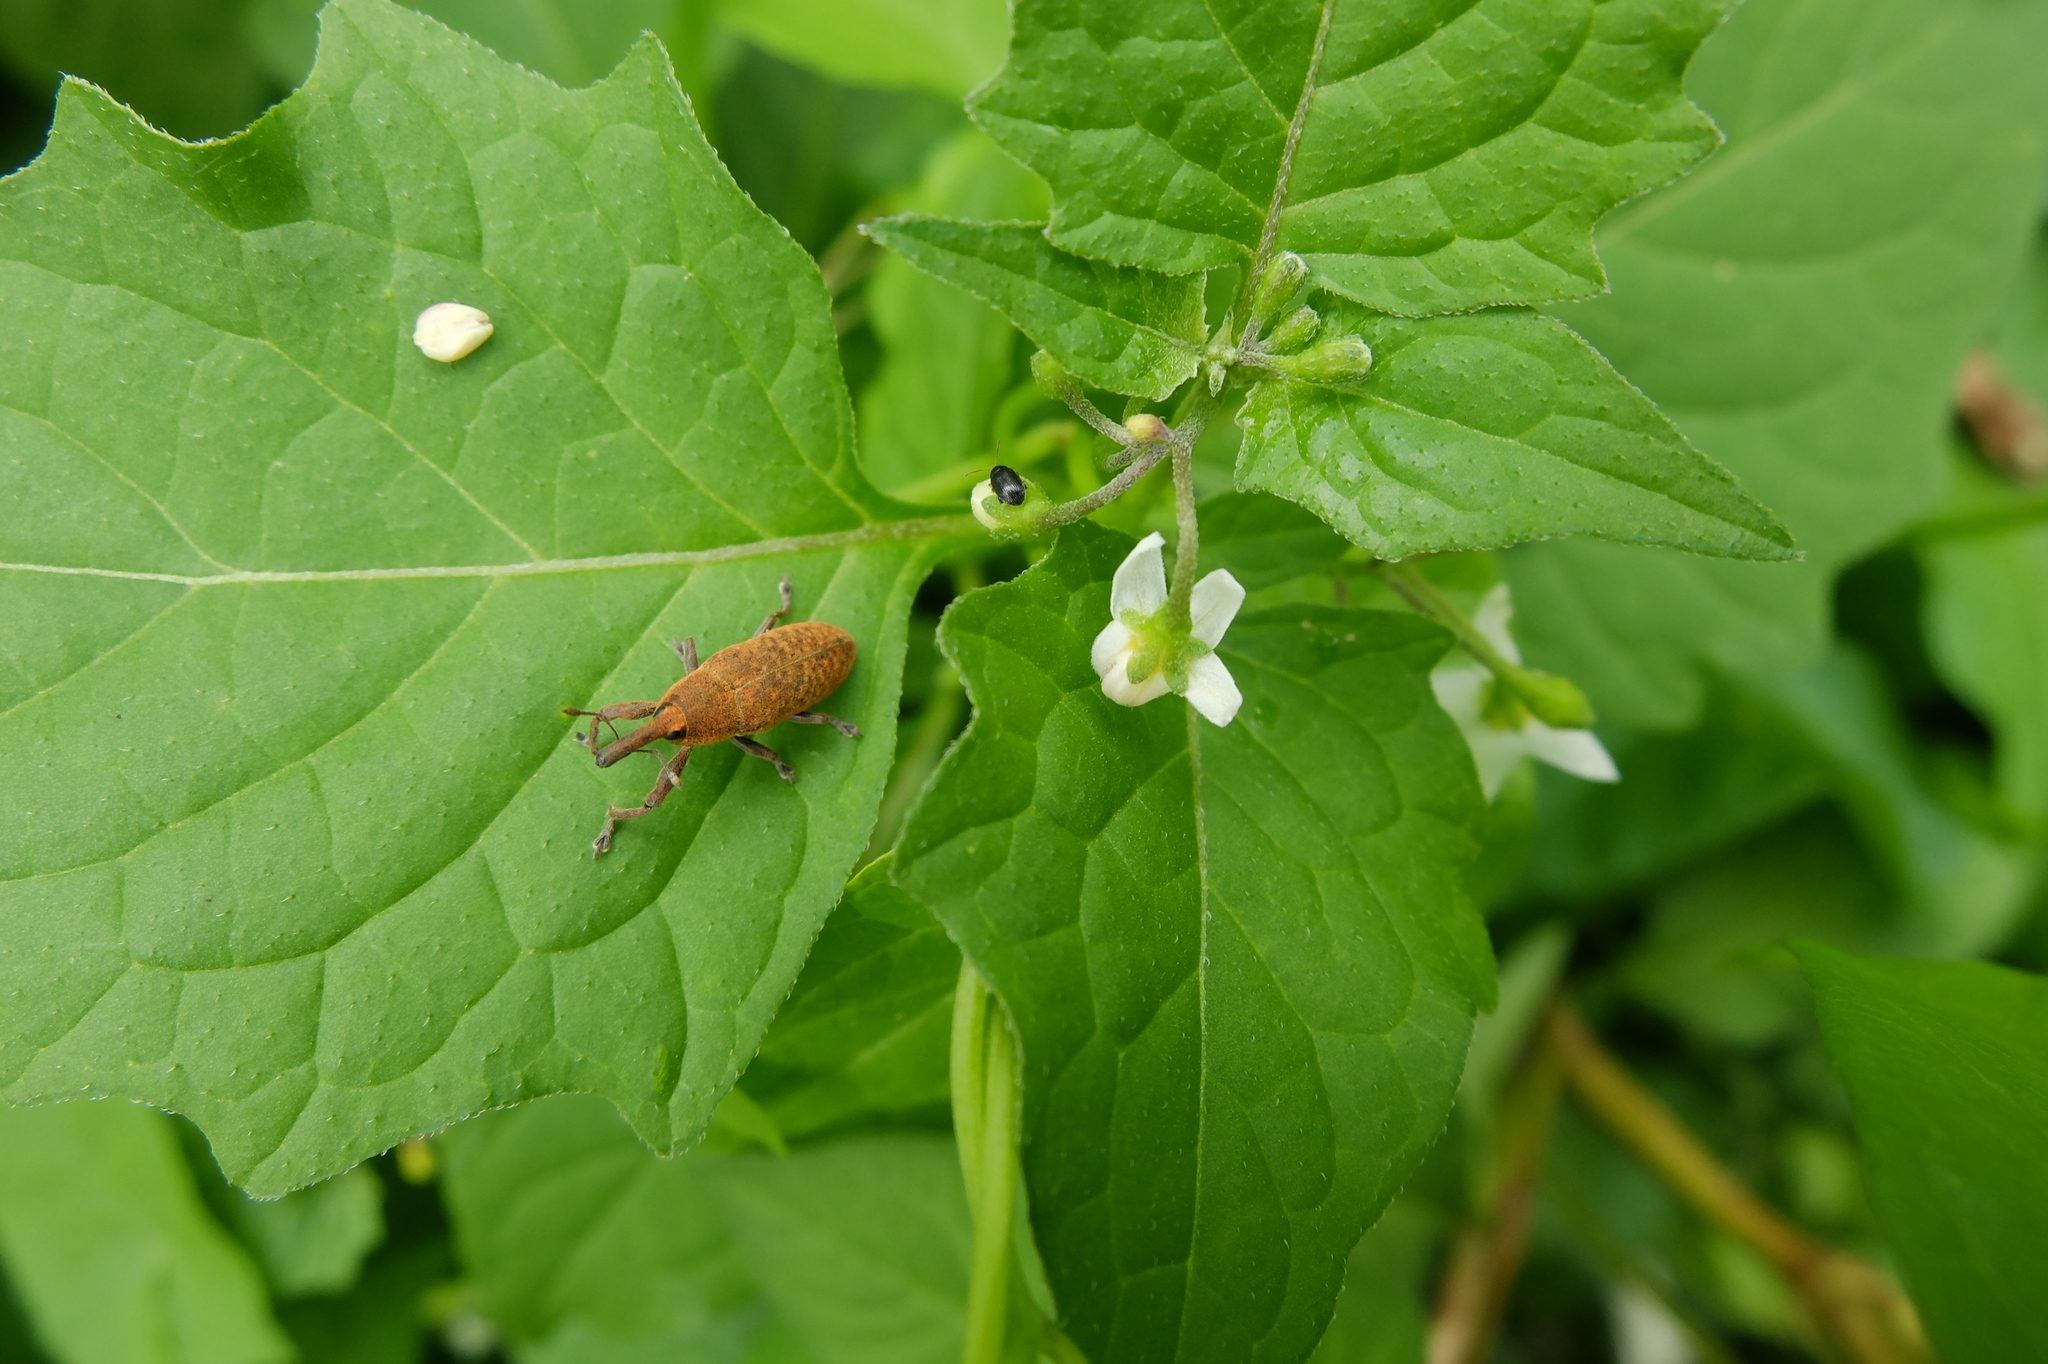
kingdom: Animalia
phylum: Arthropoda
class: Insecta
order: Coleoptera
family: Curculionidae
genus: Lixus
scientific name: Lixus bardanae
